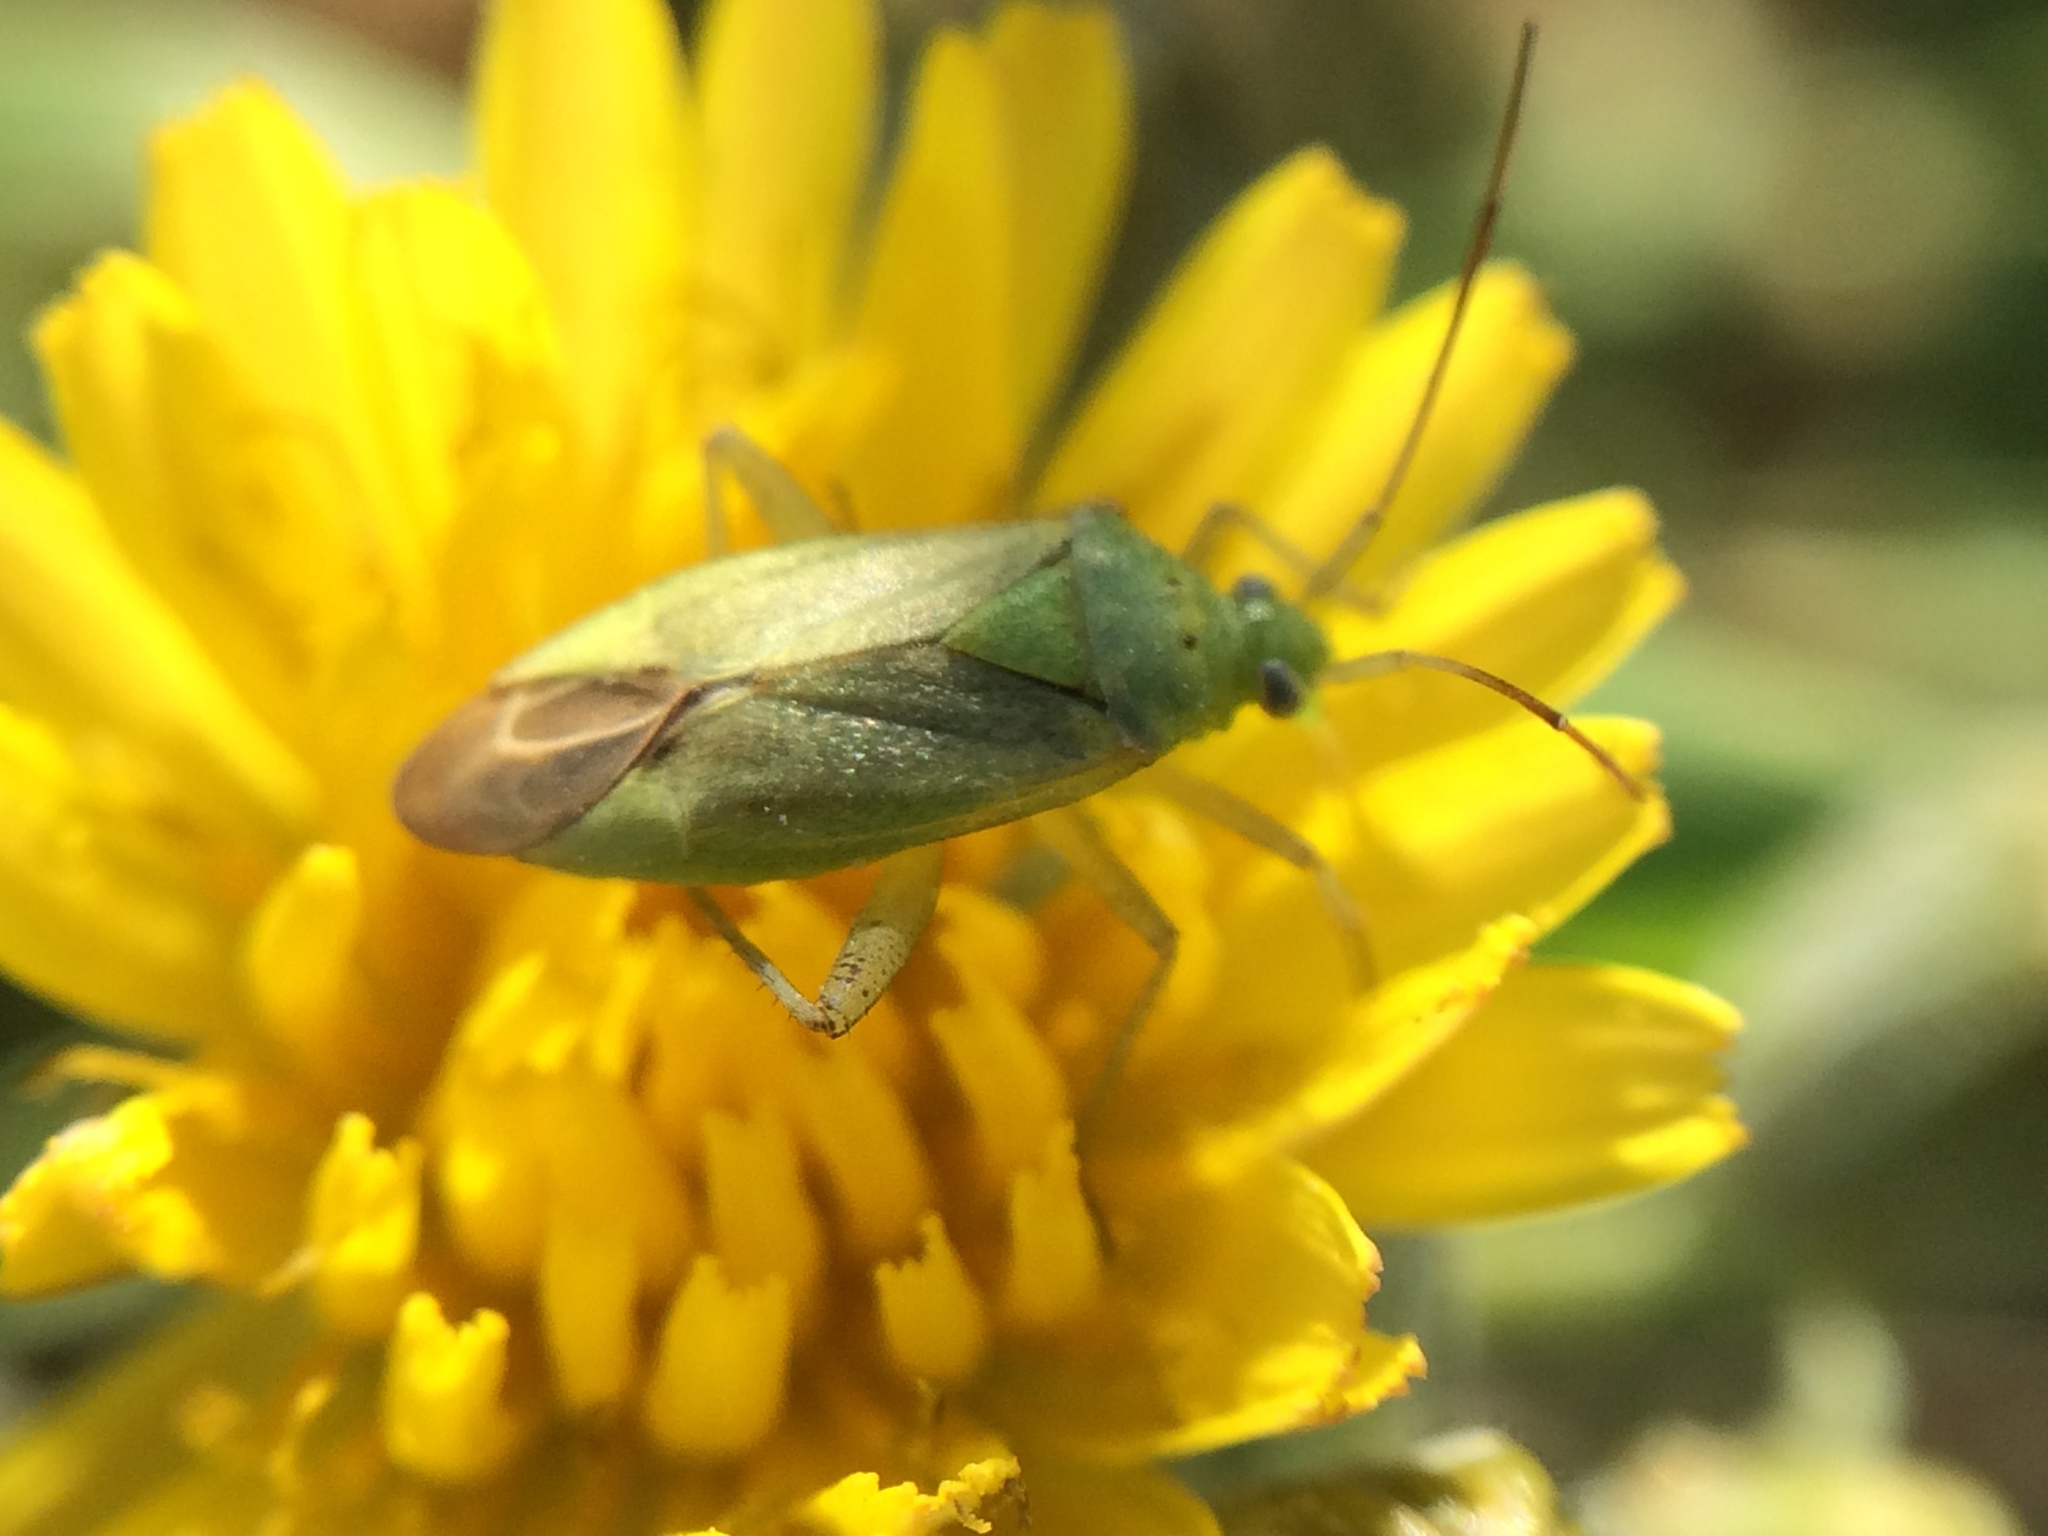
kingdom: Animalia
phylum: Arthropoda
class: Insecta
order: Hemiptera
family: Miridae
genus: Closterotomus
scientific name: Closterotomus norvegicus
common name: Plant bug
